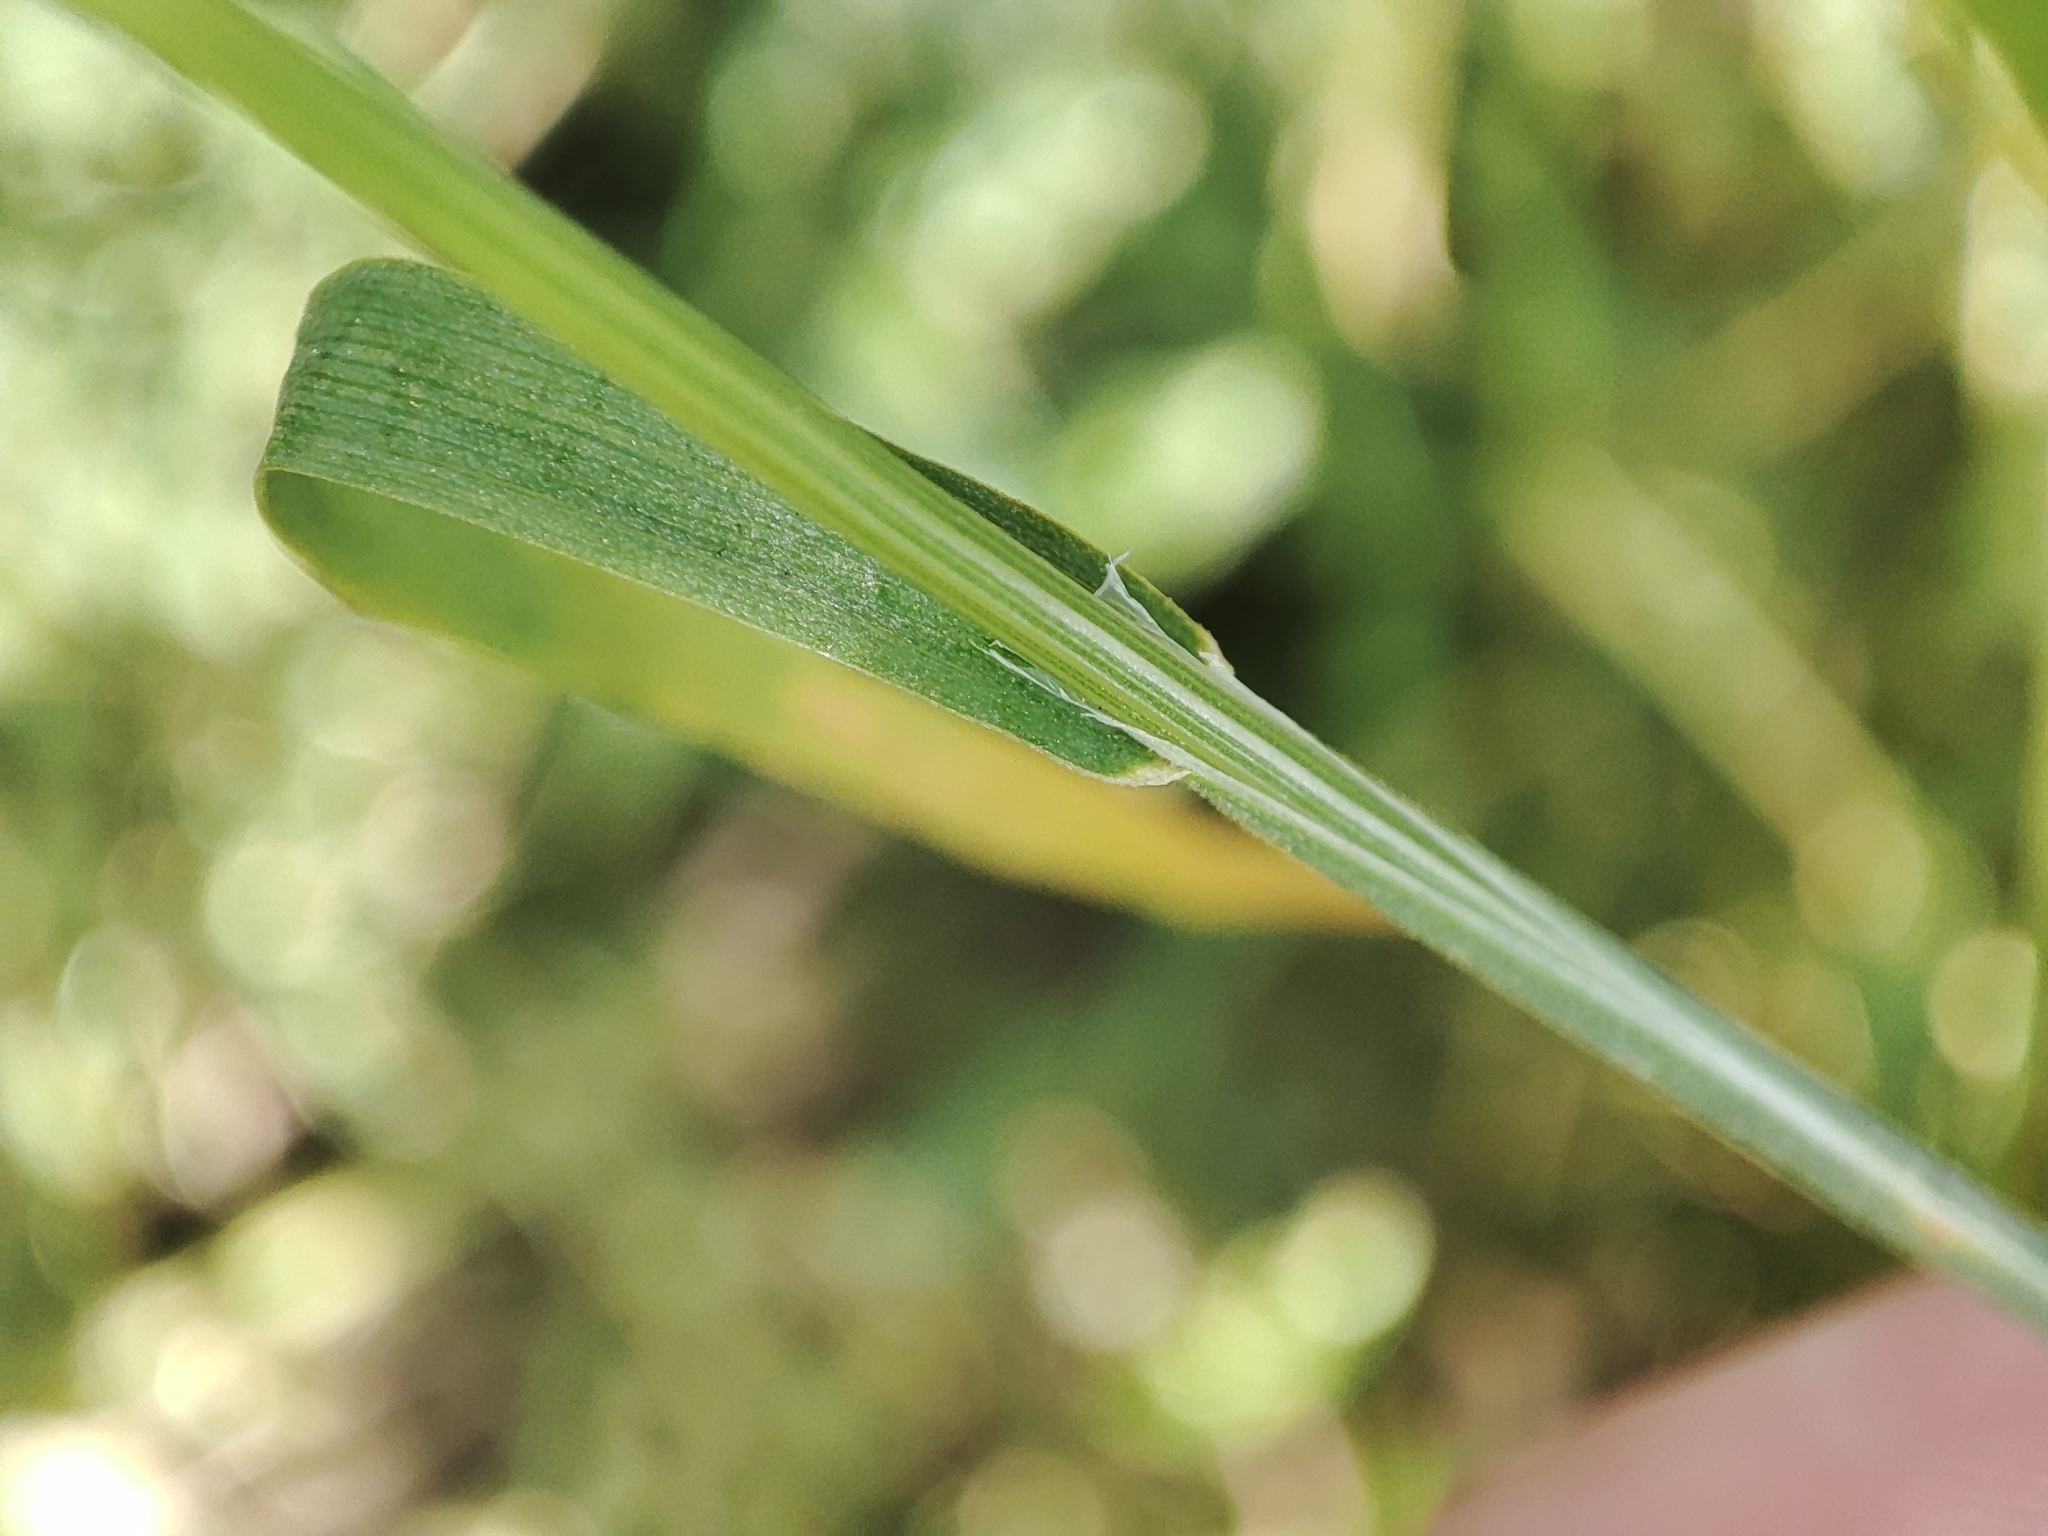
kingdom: Plantae
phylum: Tracheophyta
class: Liliopsida
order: Poales
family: Poaceae
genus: Poa
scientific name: Poa bulbosa
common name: Bulbous bluegrass
